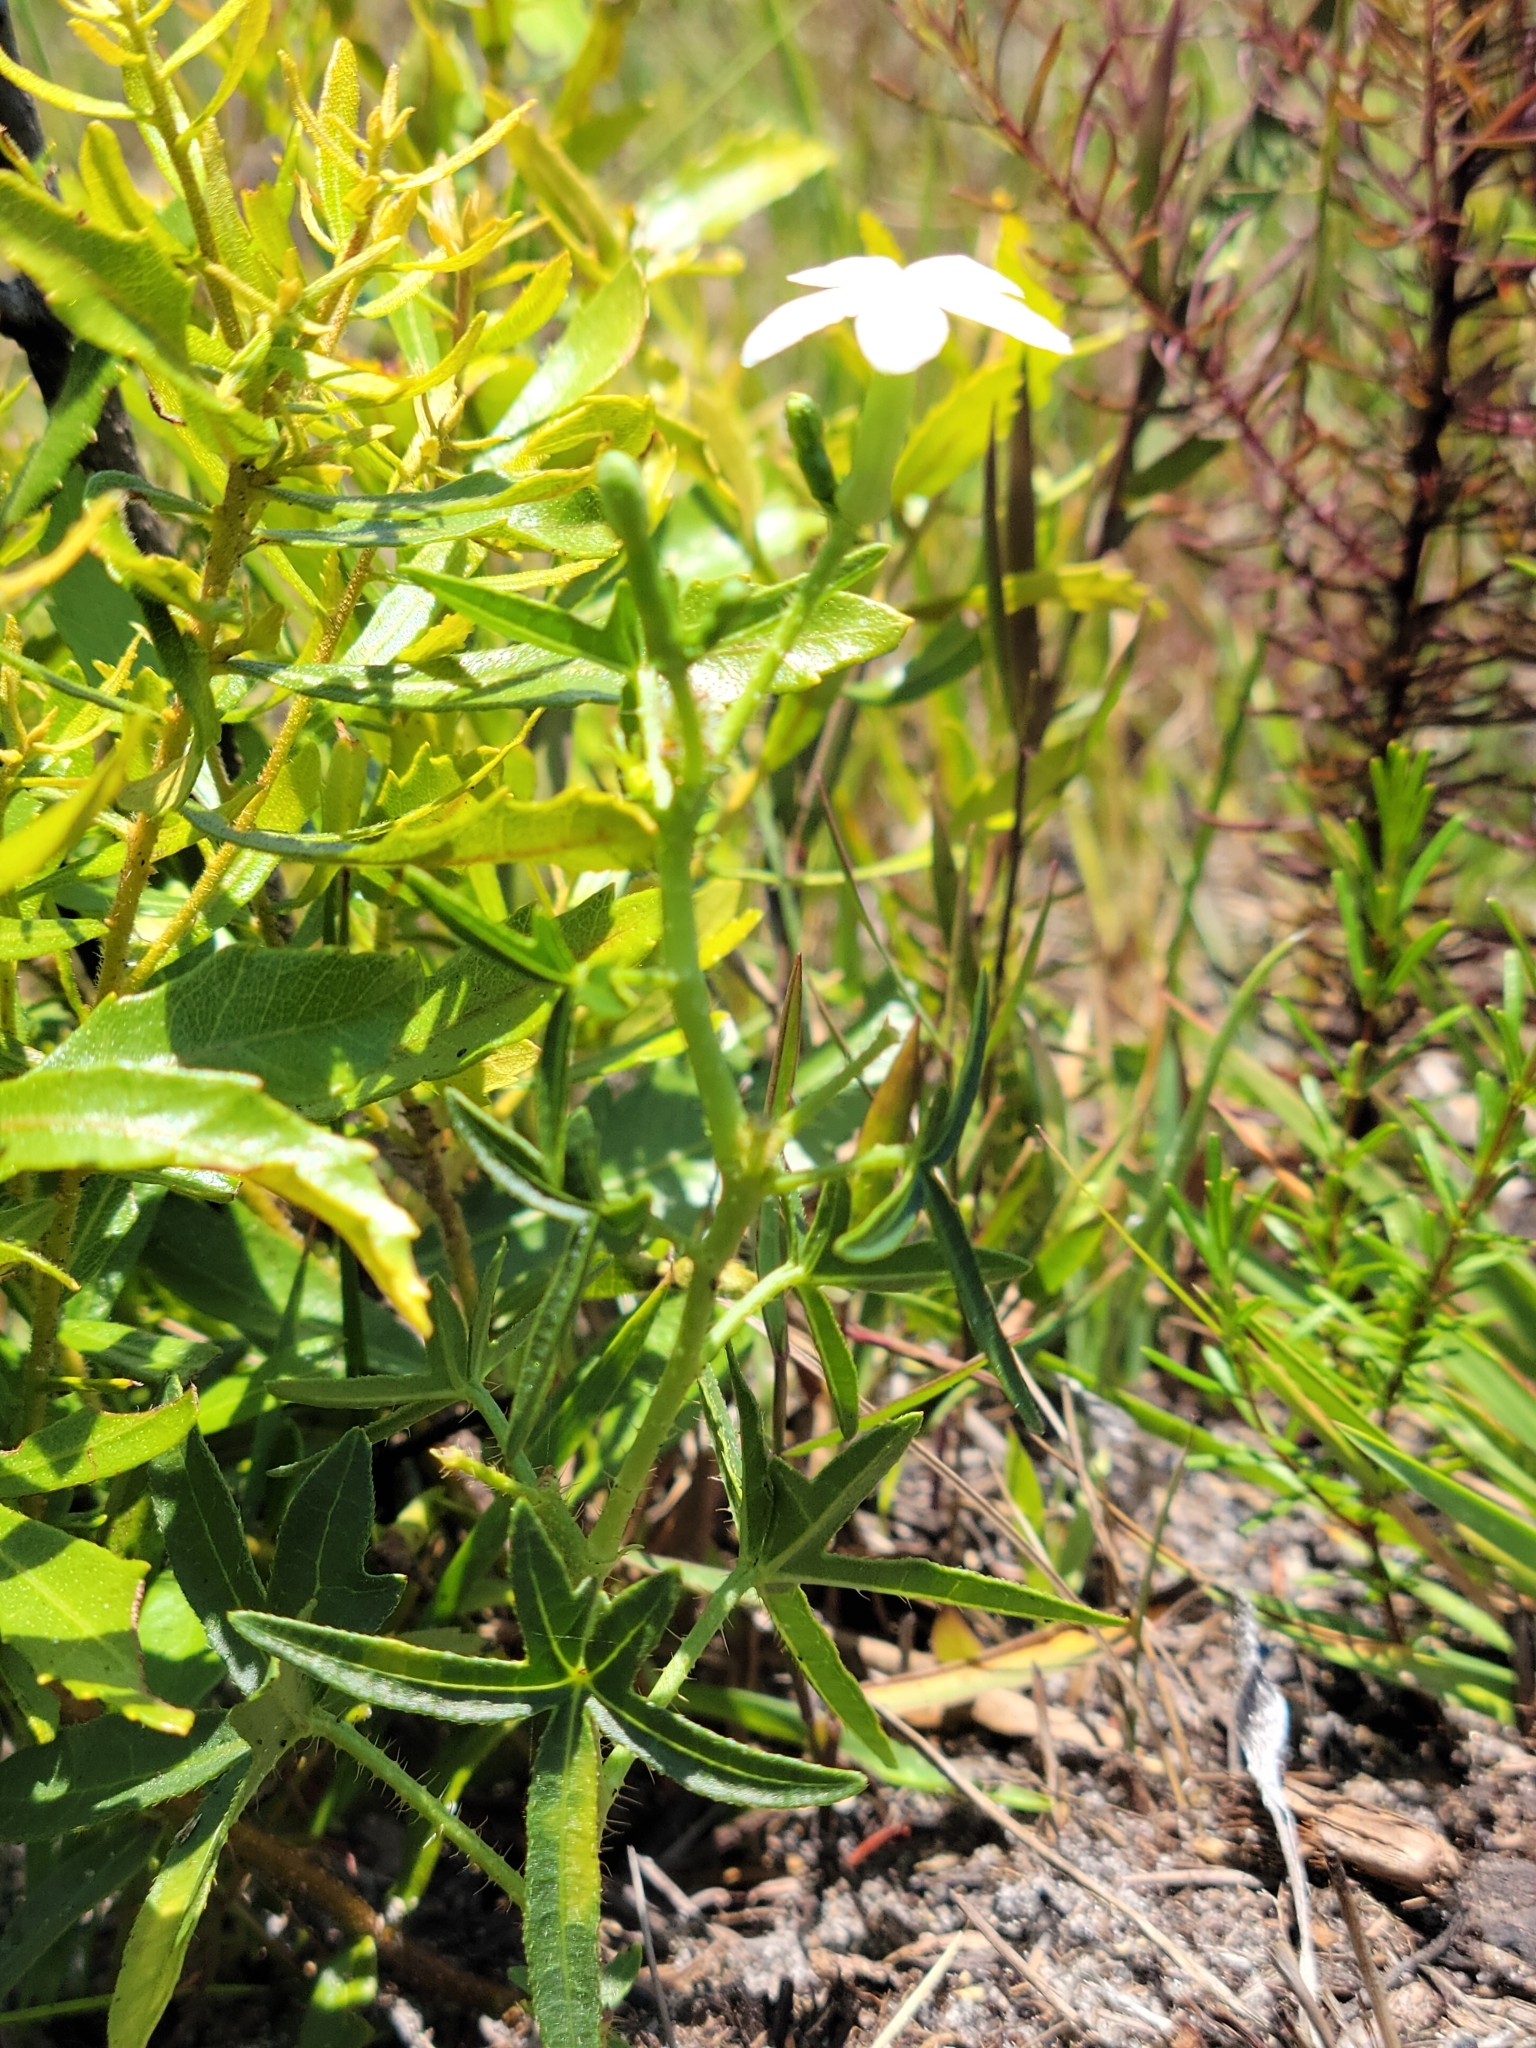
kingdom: Plantae
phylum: Tracheophyta
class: Magnoliopsida
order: Malpighiales
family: Euphorbiaceae
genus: Cnidoscolus
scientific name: Cnidoscolus stimulosus
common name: Bull-nettle
